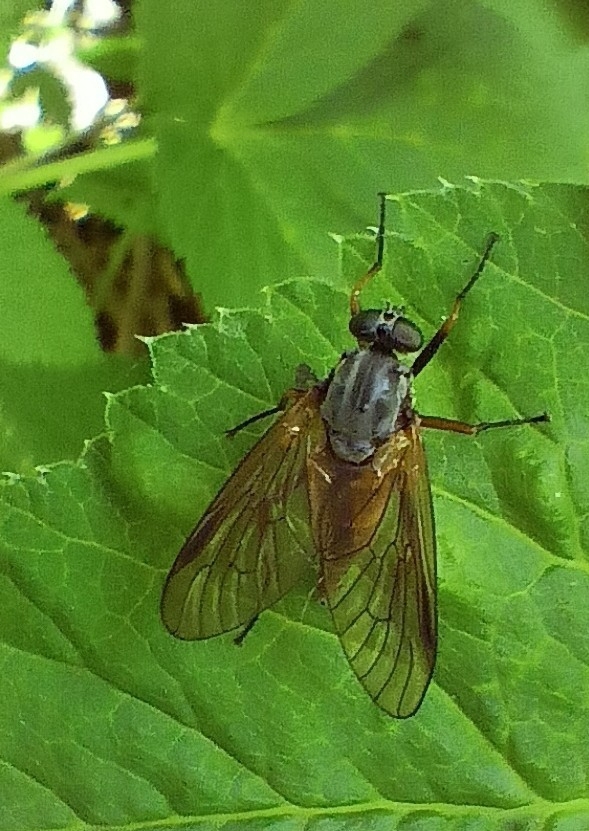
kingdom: Animalia
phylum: Arthropoda
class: Insecta
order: Diptera
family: Rhagionidae
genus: Rhagio
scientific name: Rhagio notatus
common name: Large fleck-winged snipefly
